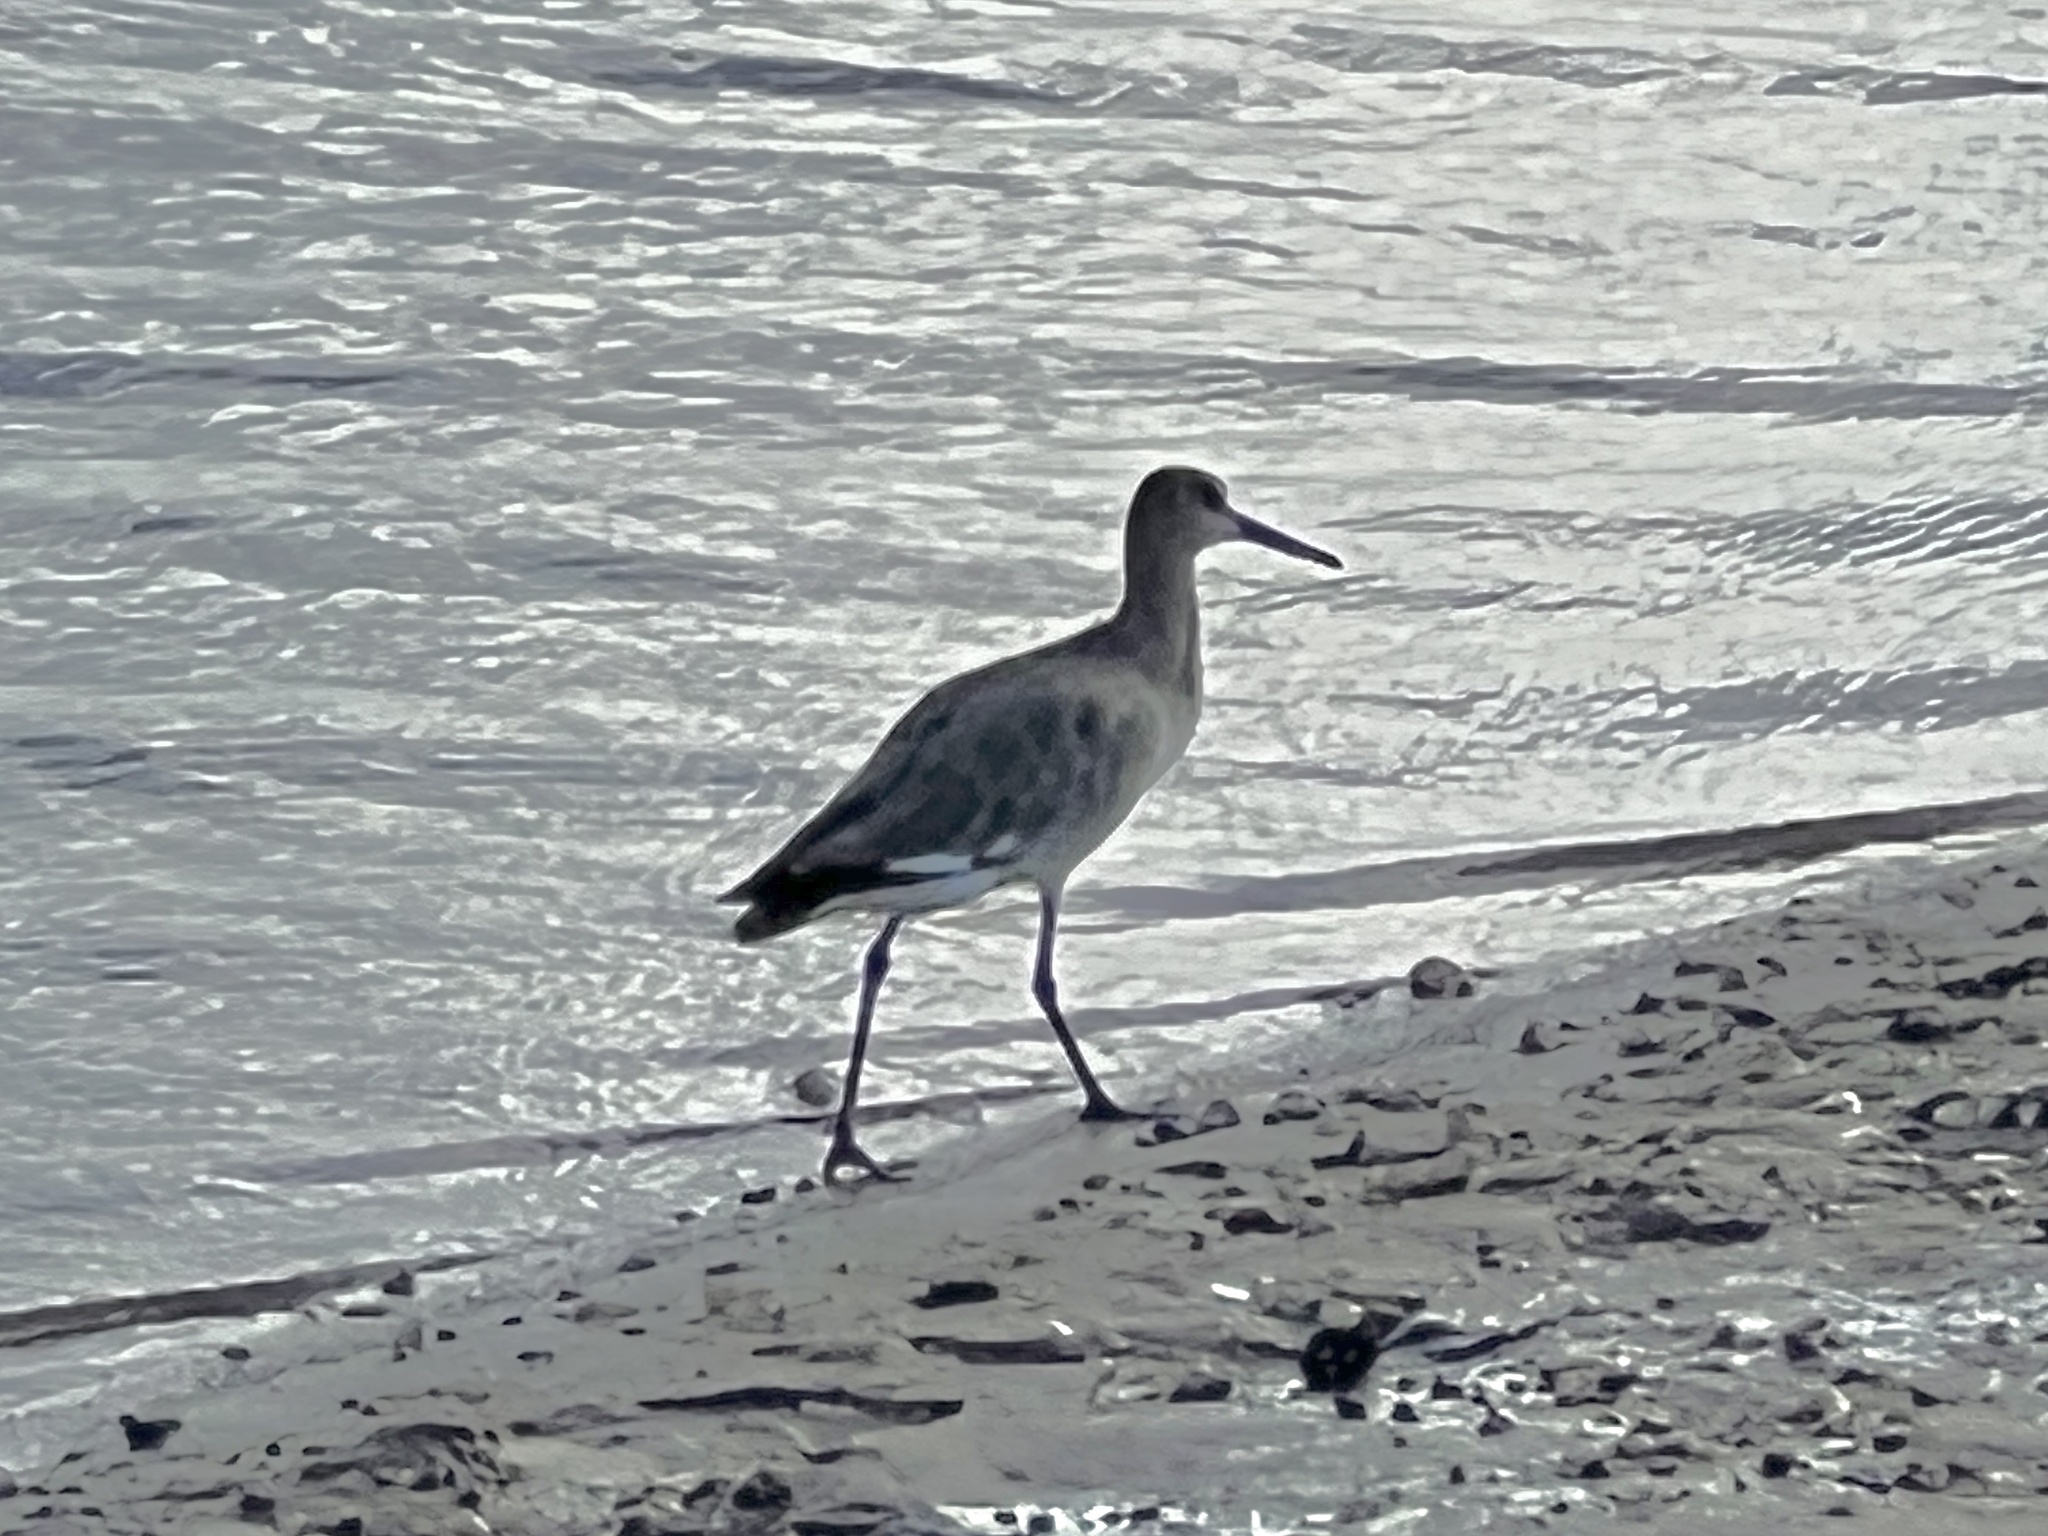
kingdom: Animalia
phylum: Chordata
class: Aves
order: Charadriiformes
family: Scolopacidae
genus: Tringa
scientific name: Tringa semipalmata
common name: Willet
